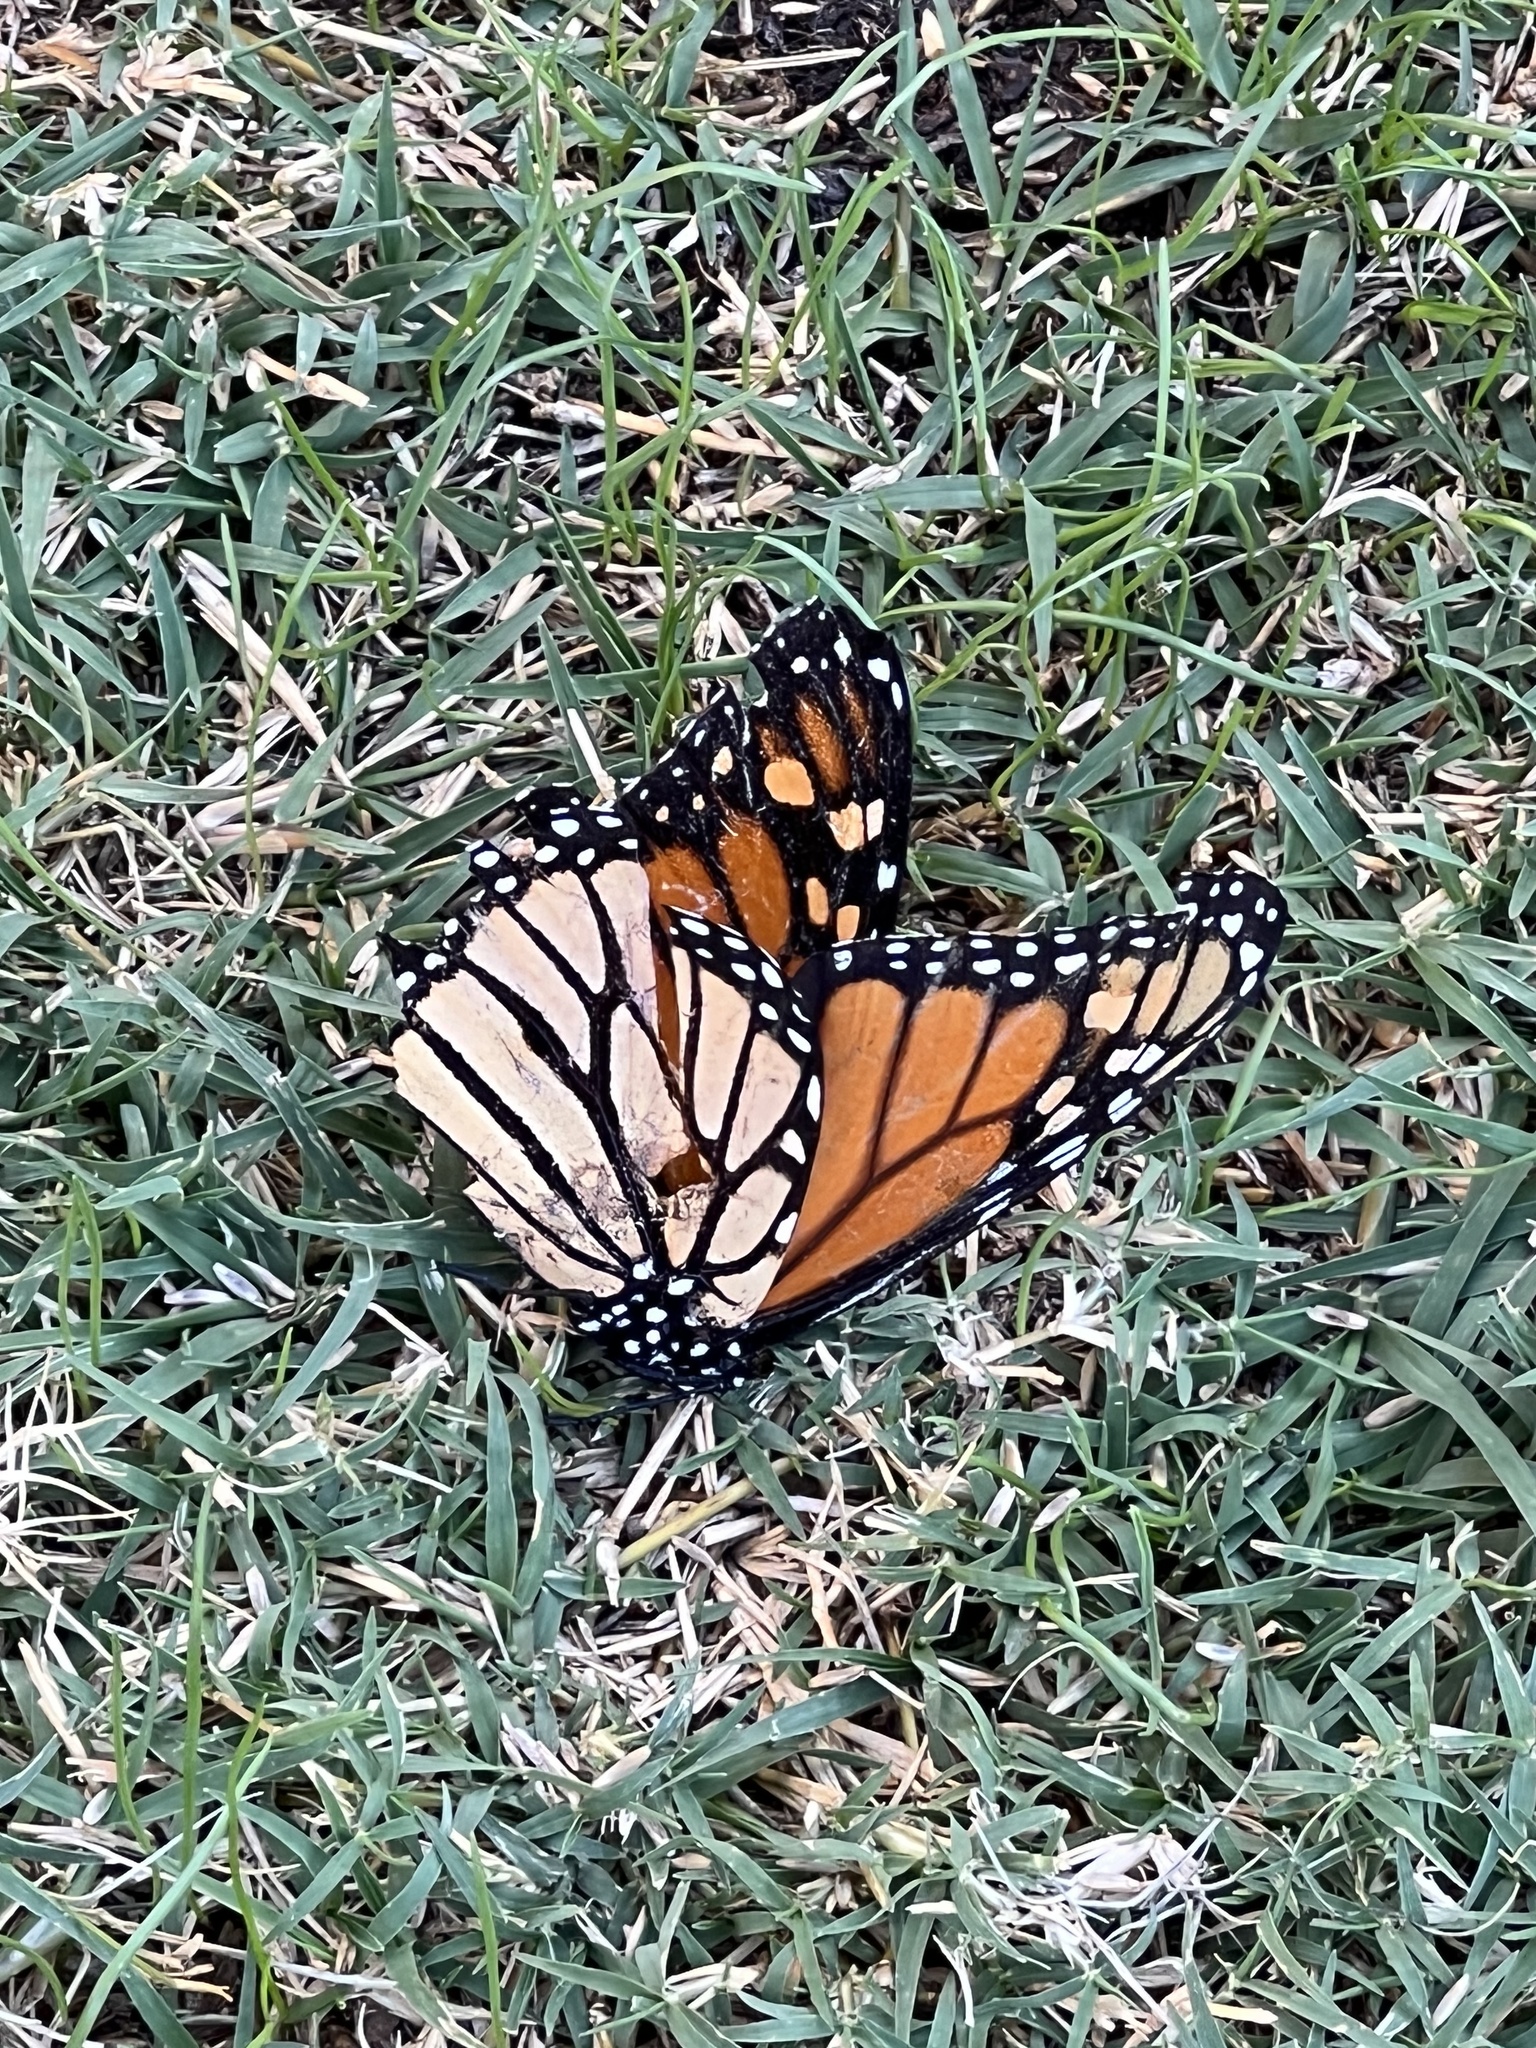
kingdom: Animalia
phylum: Arthropoda
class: Insecta
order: Lepidoptera
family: Nymphalidae
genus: Danaus
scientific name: Danaus plexippus
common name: Monarch
